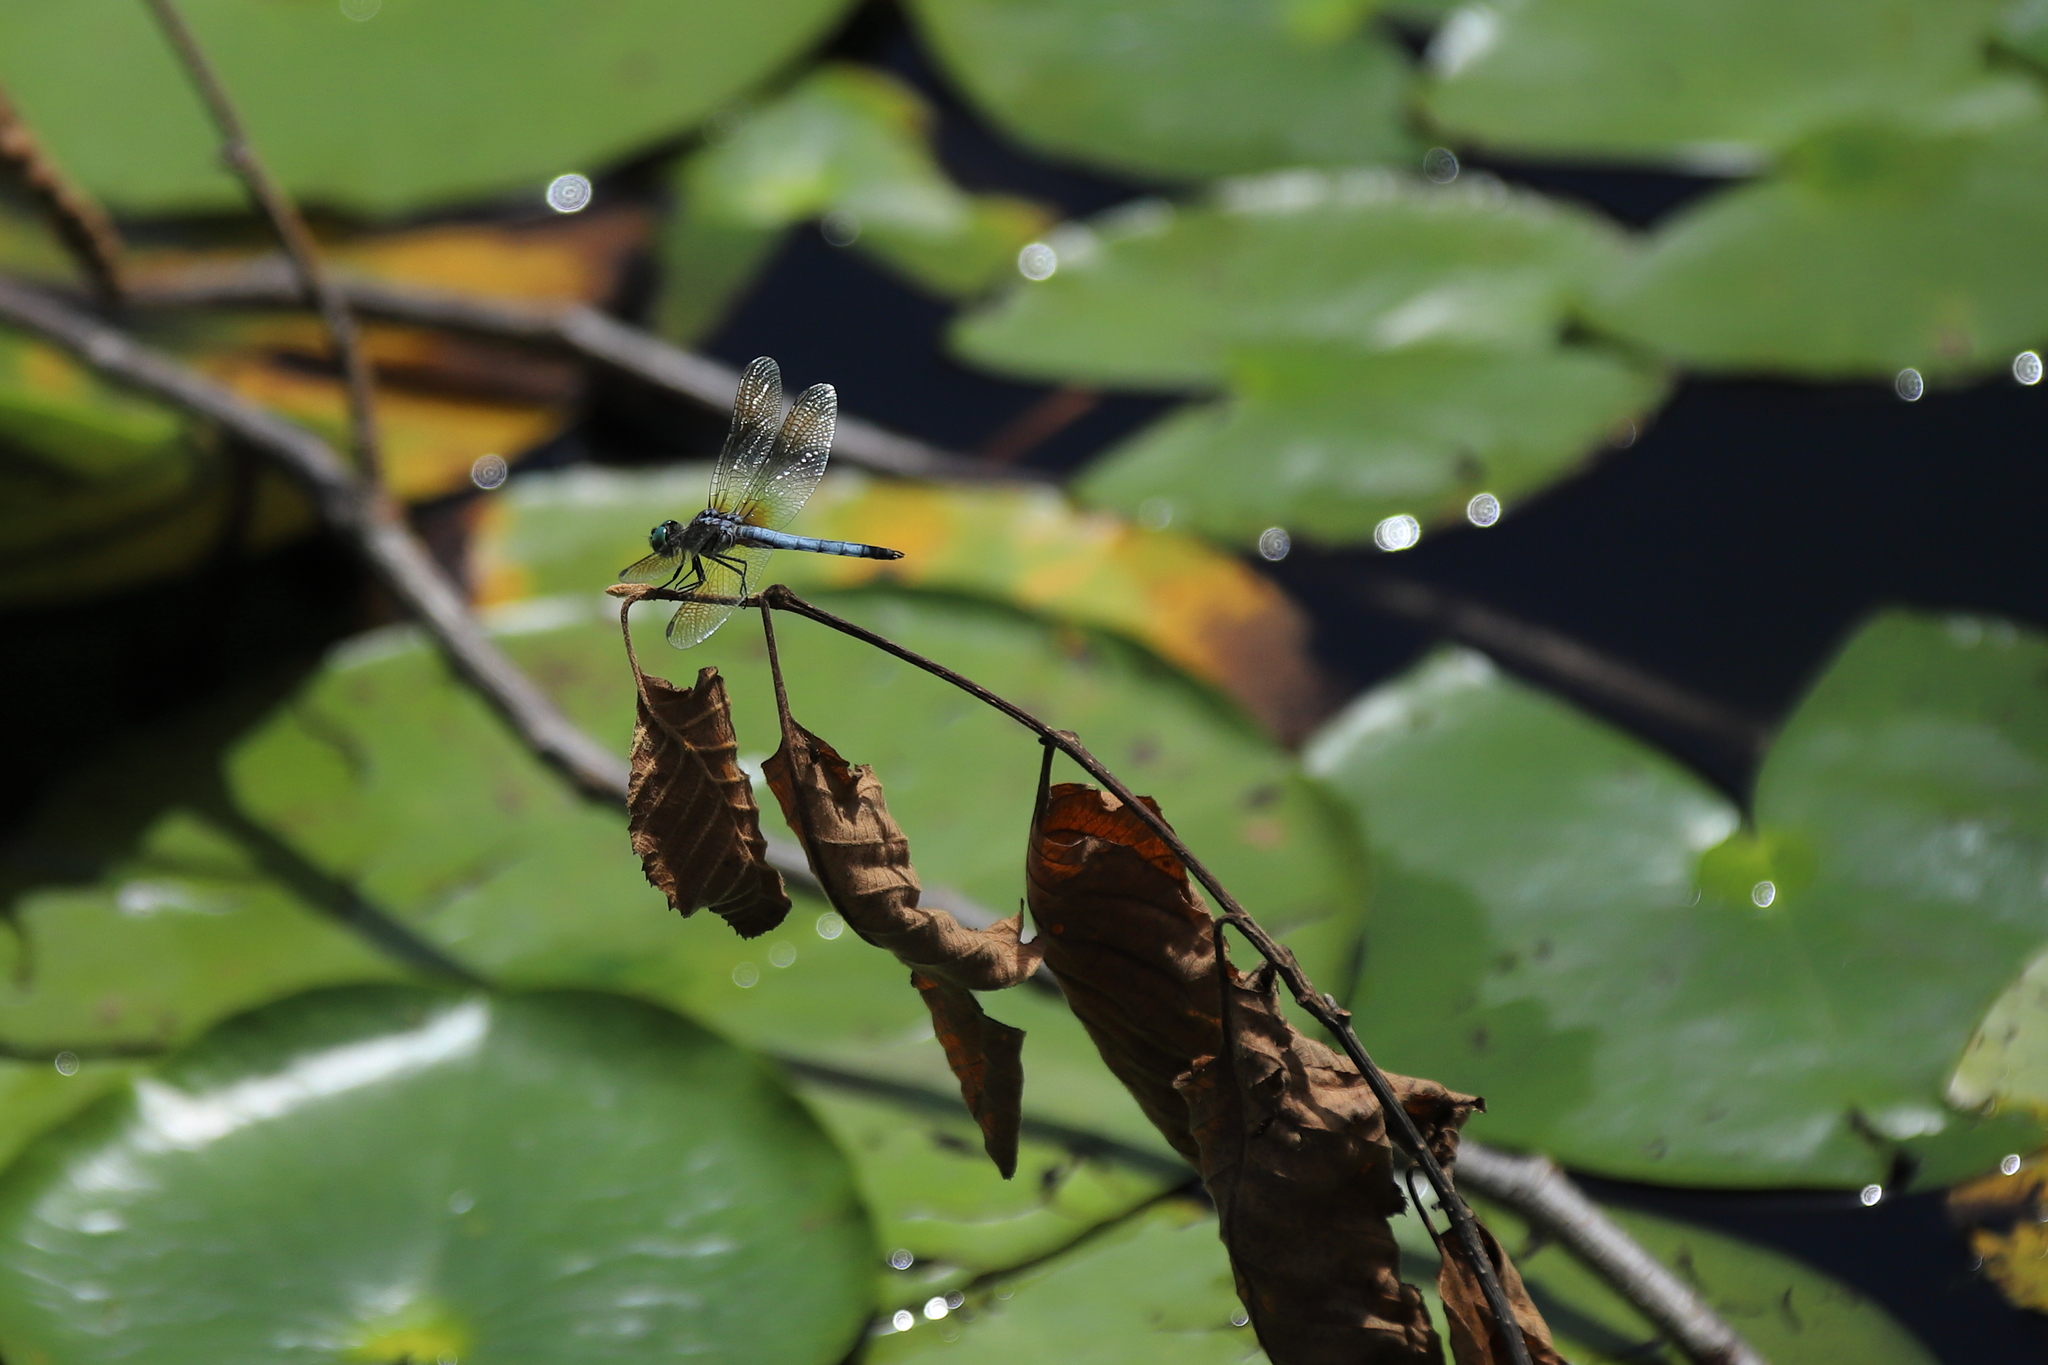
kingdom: Animalia
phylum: Arthropoda
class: Insecta
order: Odonata
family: Libellulidae
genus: Pachydiplax
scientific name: Pachydiplax longipennis
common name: Blue dasher
